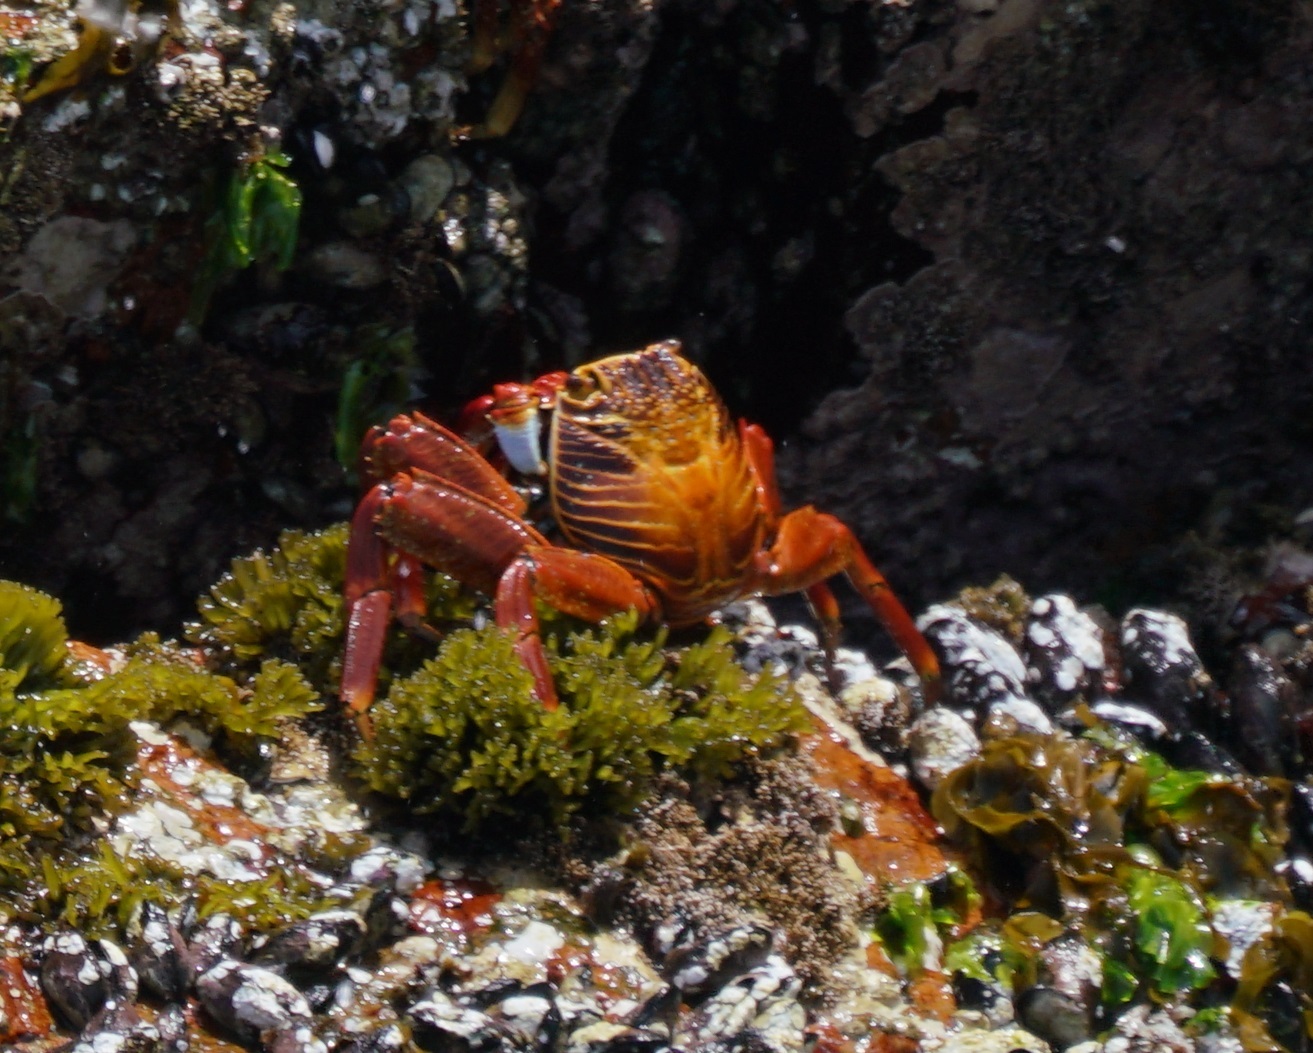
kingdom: Animalia
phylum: Arthropoda
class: Malacostraca
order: Decapoda
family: Grapsidae
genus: Grapsus
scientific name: Grapsus grapsus
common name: Sally lightfoot
